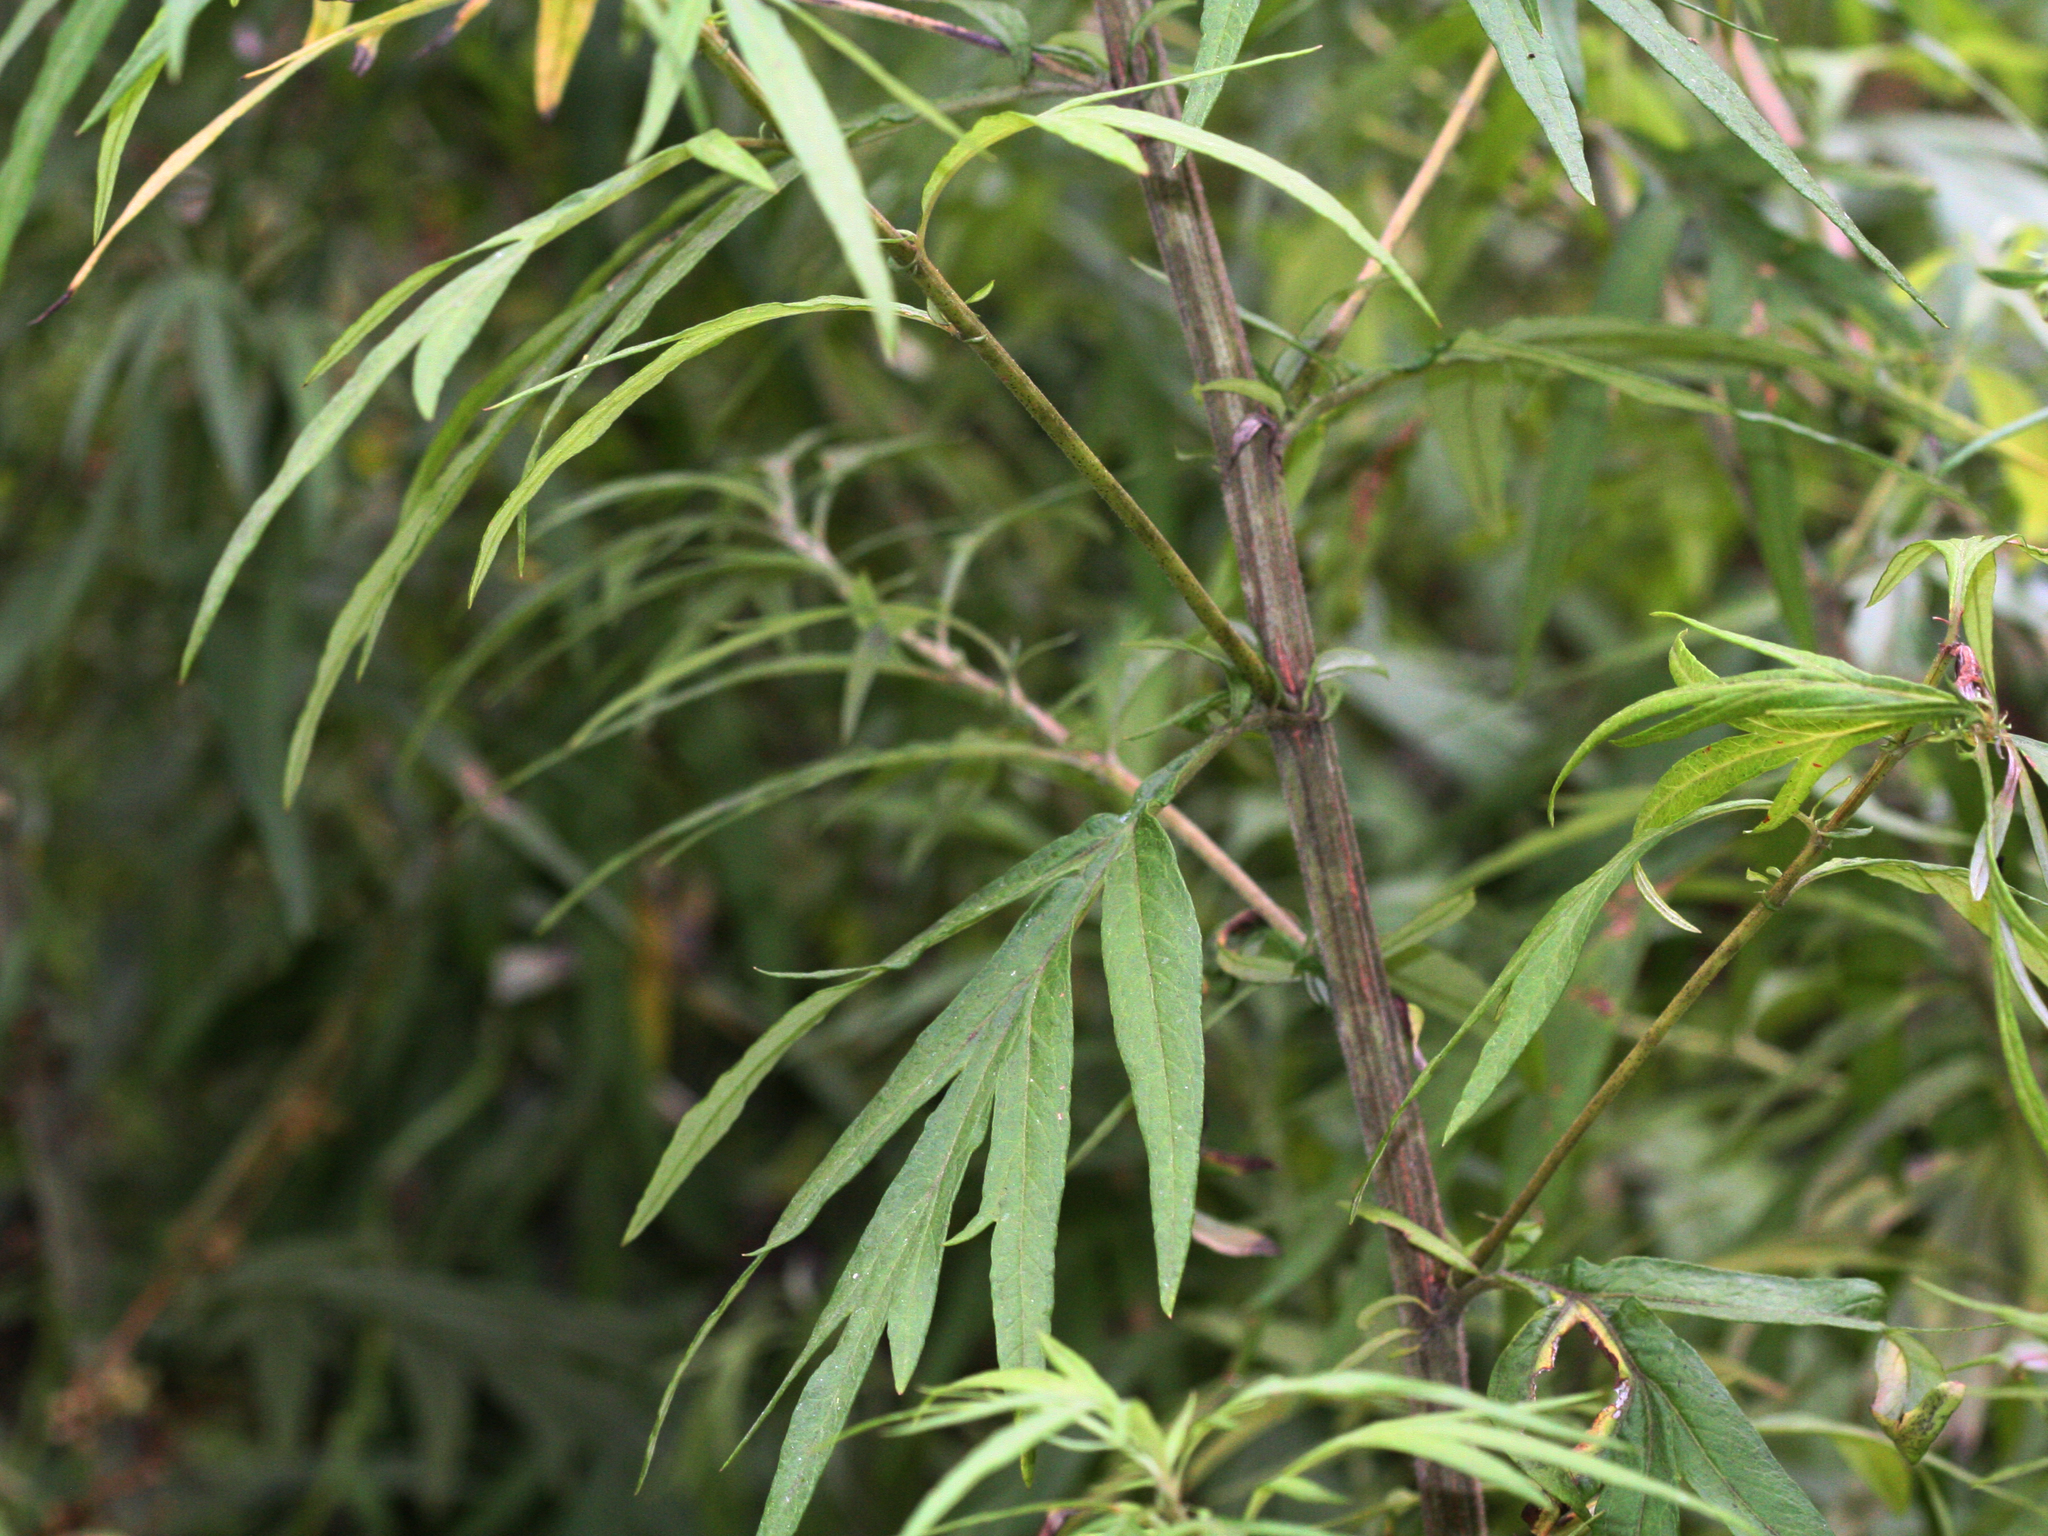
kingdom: Plantae
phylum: Tracheophyta
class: Magnoliopsida
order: Asterales
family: Asteraceae
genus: Artemisia
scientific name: Artemisia vulgaris
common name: Mugwort
